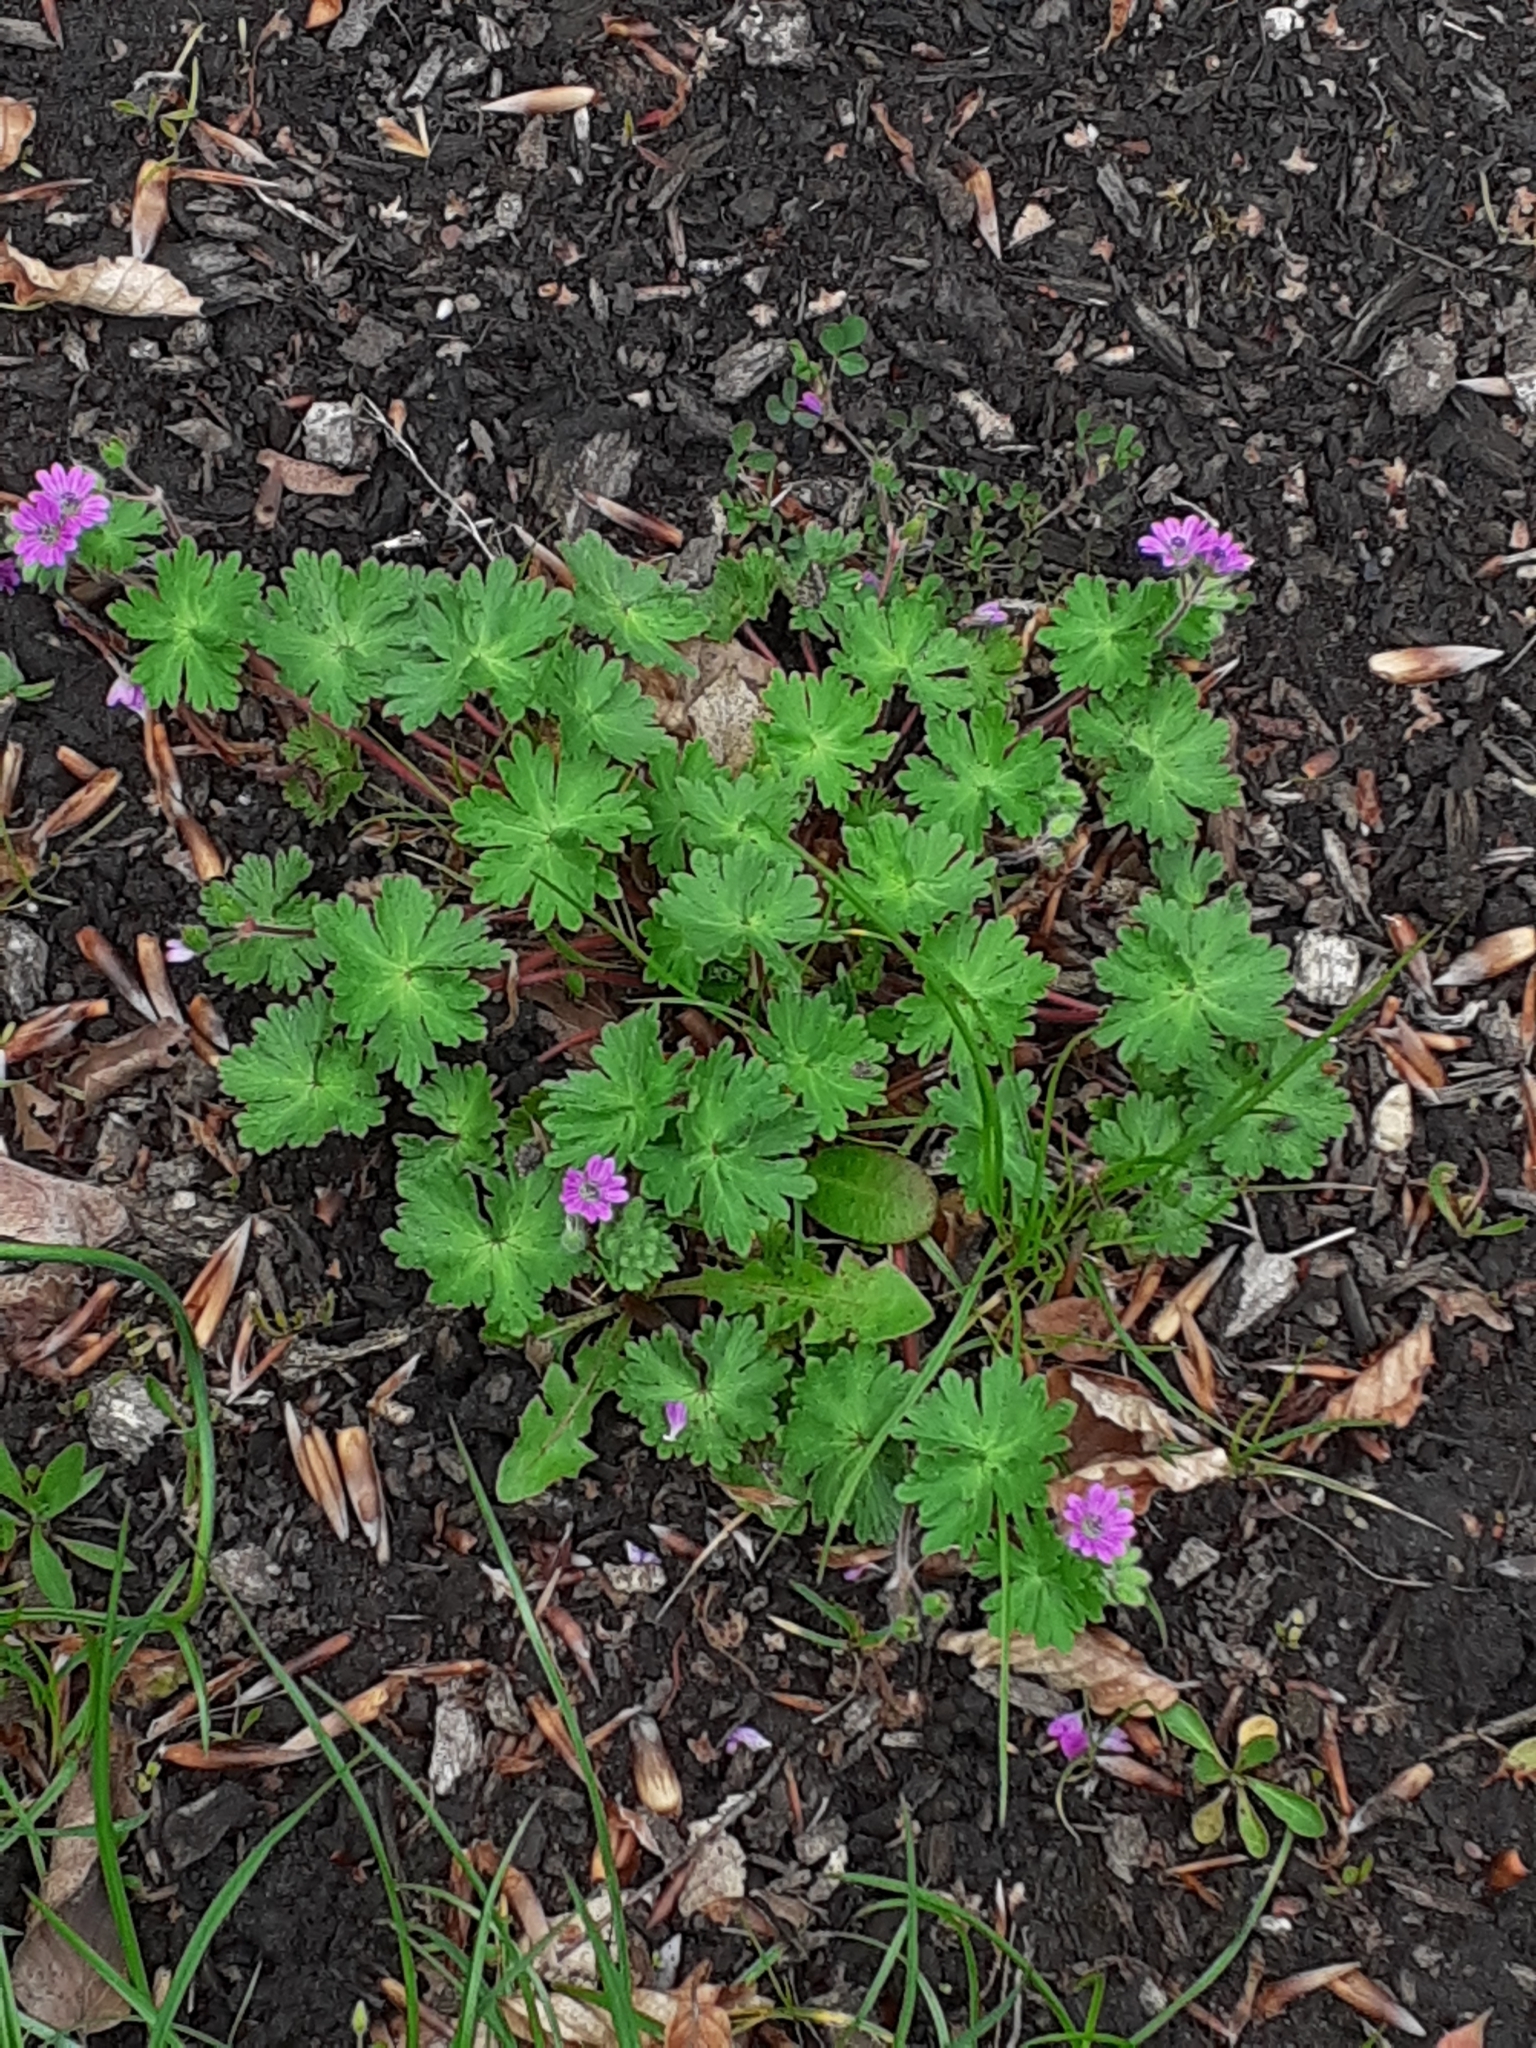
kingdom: Plantae
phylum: Tracheophyta
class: Magnoliopsida
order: Geraniales
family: Geraniaceae
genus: Geranium
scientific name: Geranium molle
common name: Dove's-foot crane's-bill
